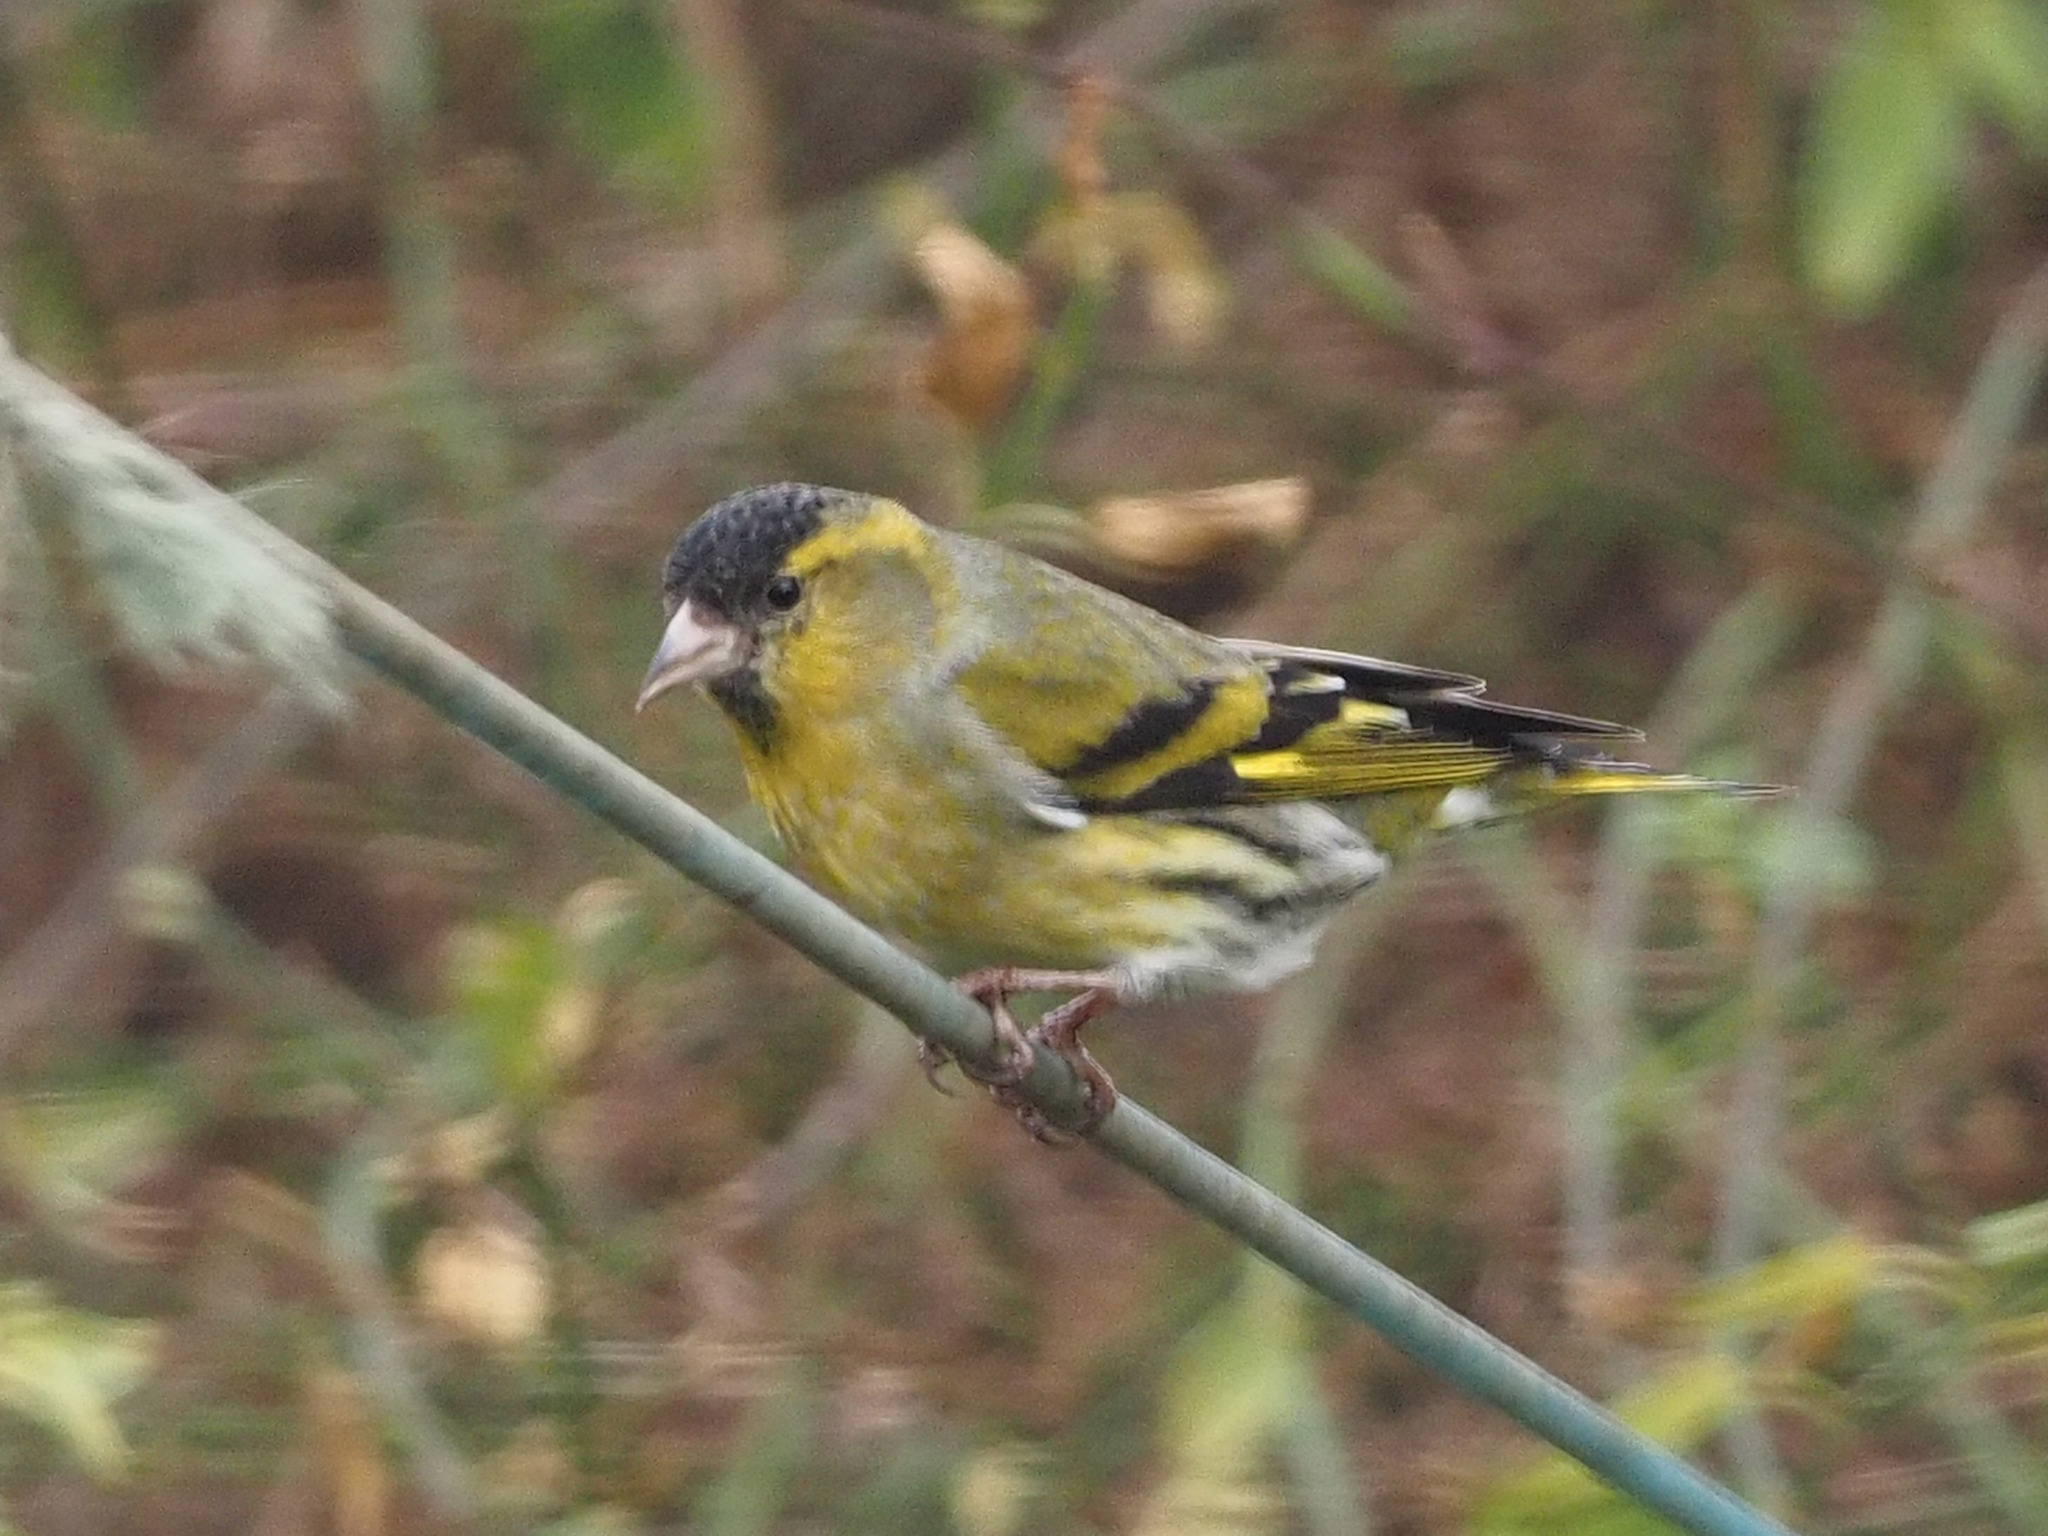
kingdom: Animalia
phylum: Chordata
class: Aves
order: Passeriformes
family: Fringillidae
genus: Spinus
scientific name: Spinus spinus
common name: Eurasian siskin
